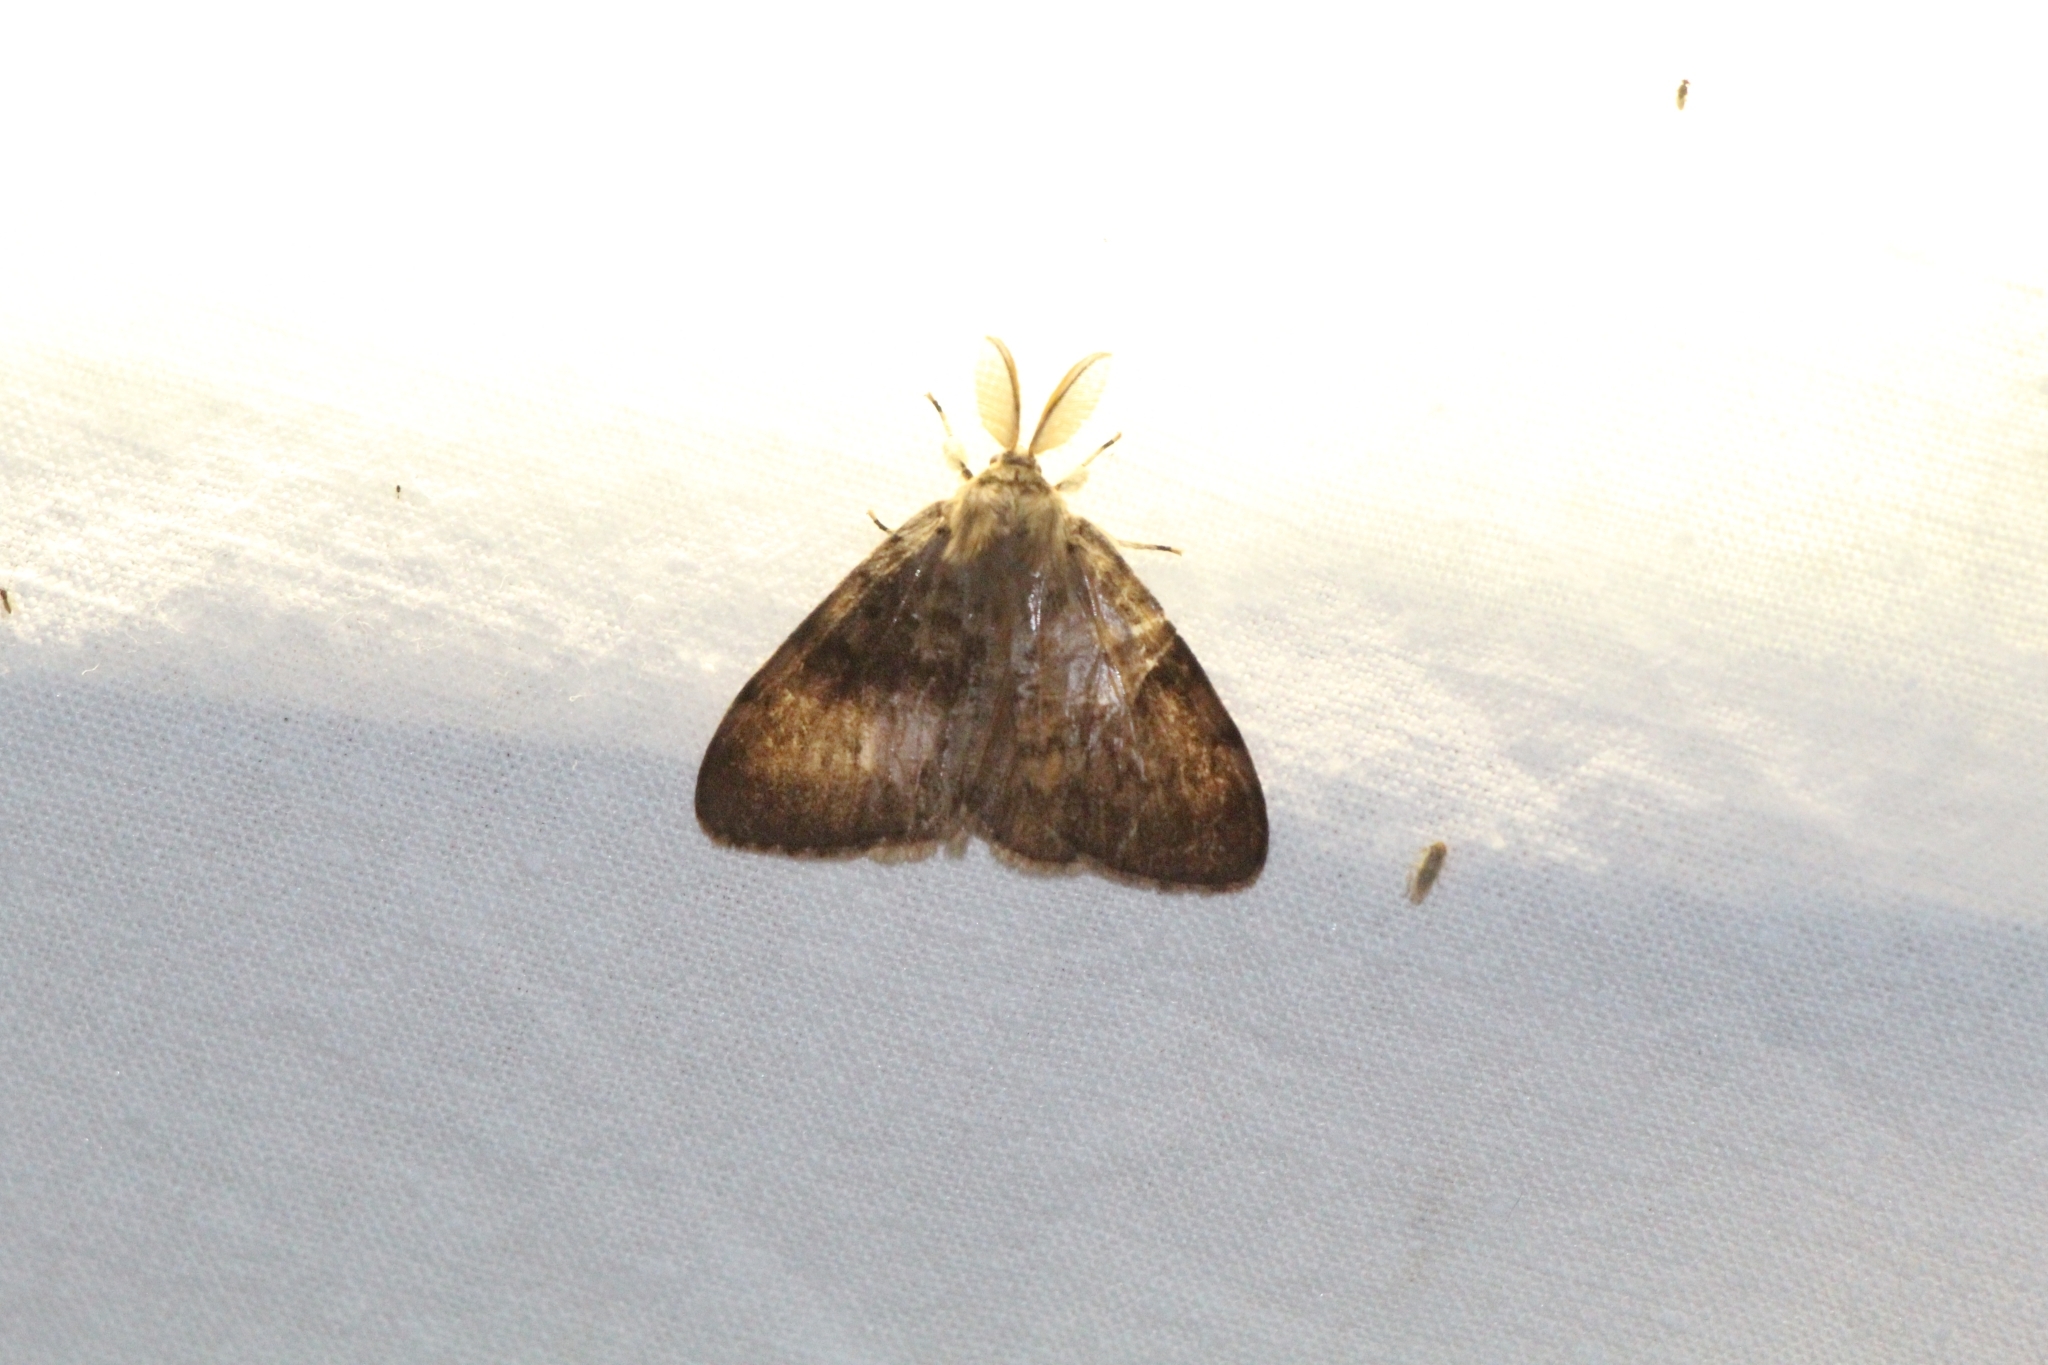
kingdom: Animalia
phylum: Arthropoda
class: Insecta
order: Lepidoptera
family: Erebidae
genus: Lymantria
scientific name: Lymantria dispar
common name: Gypsy moth
